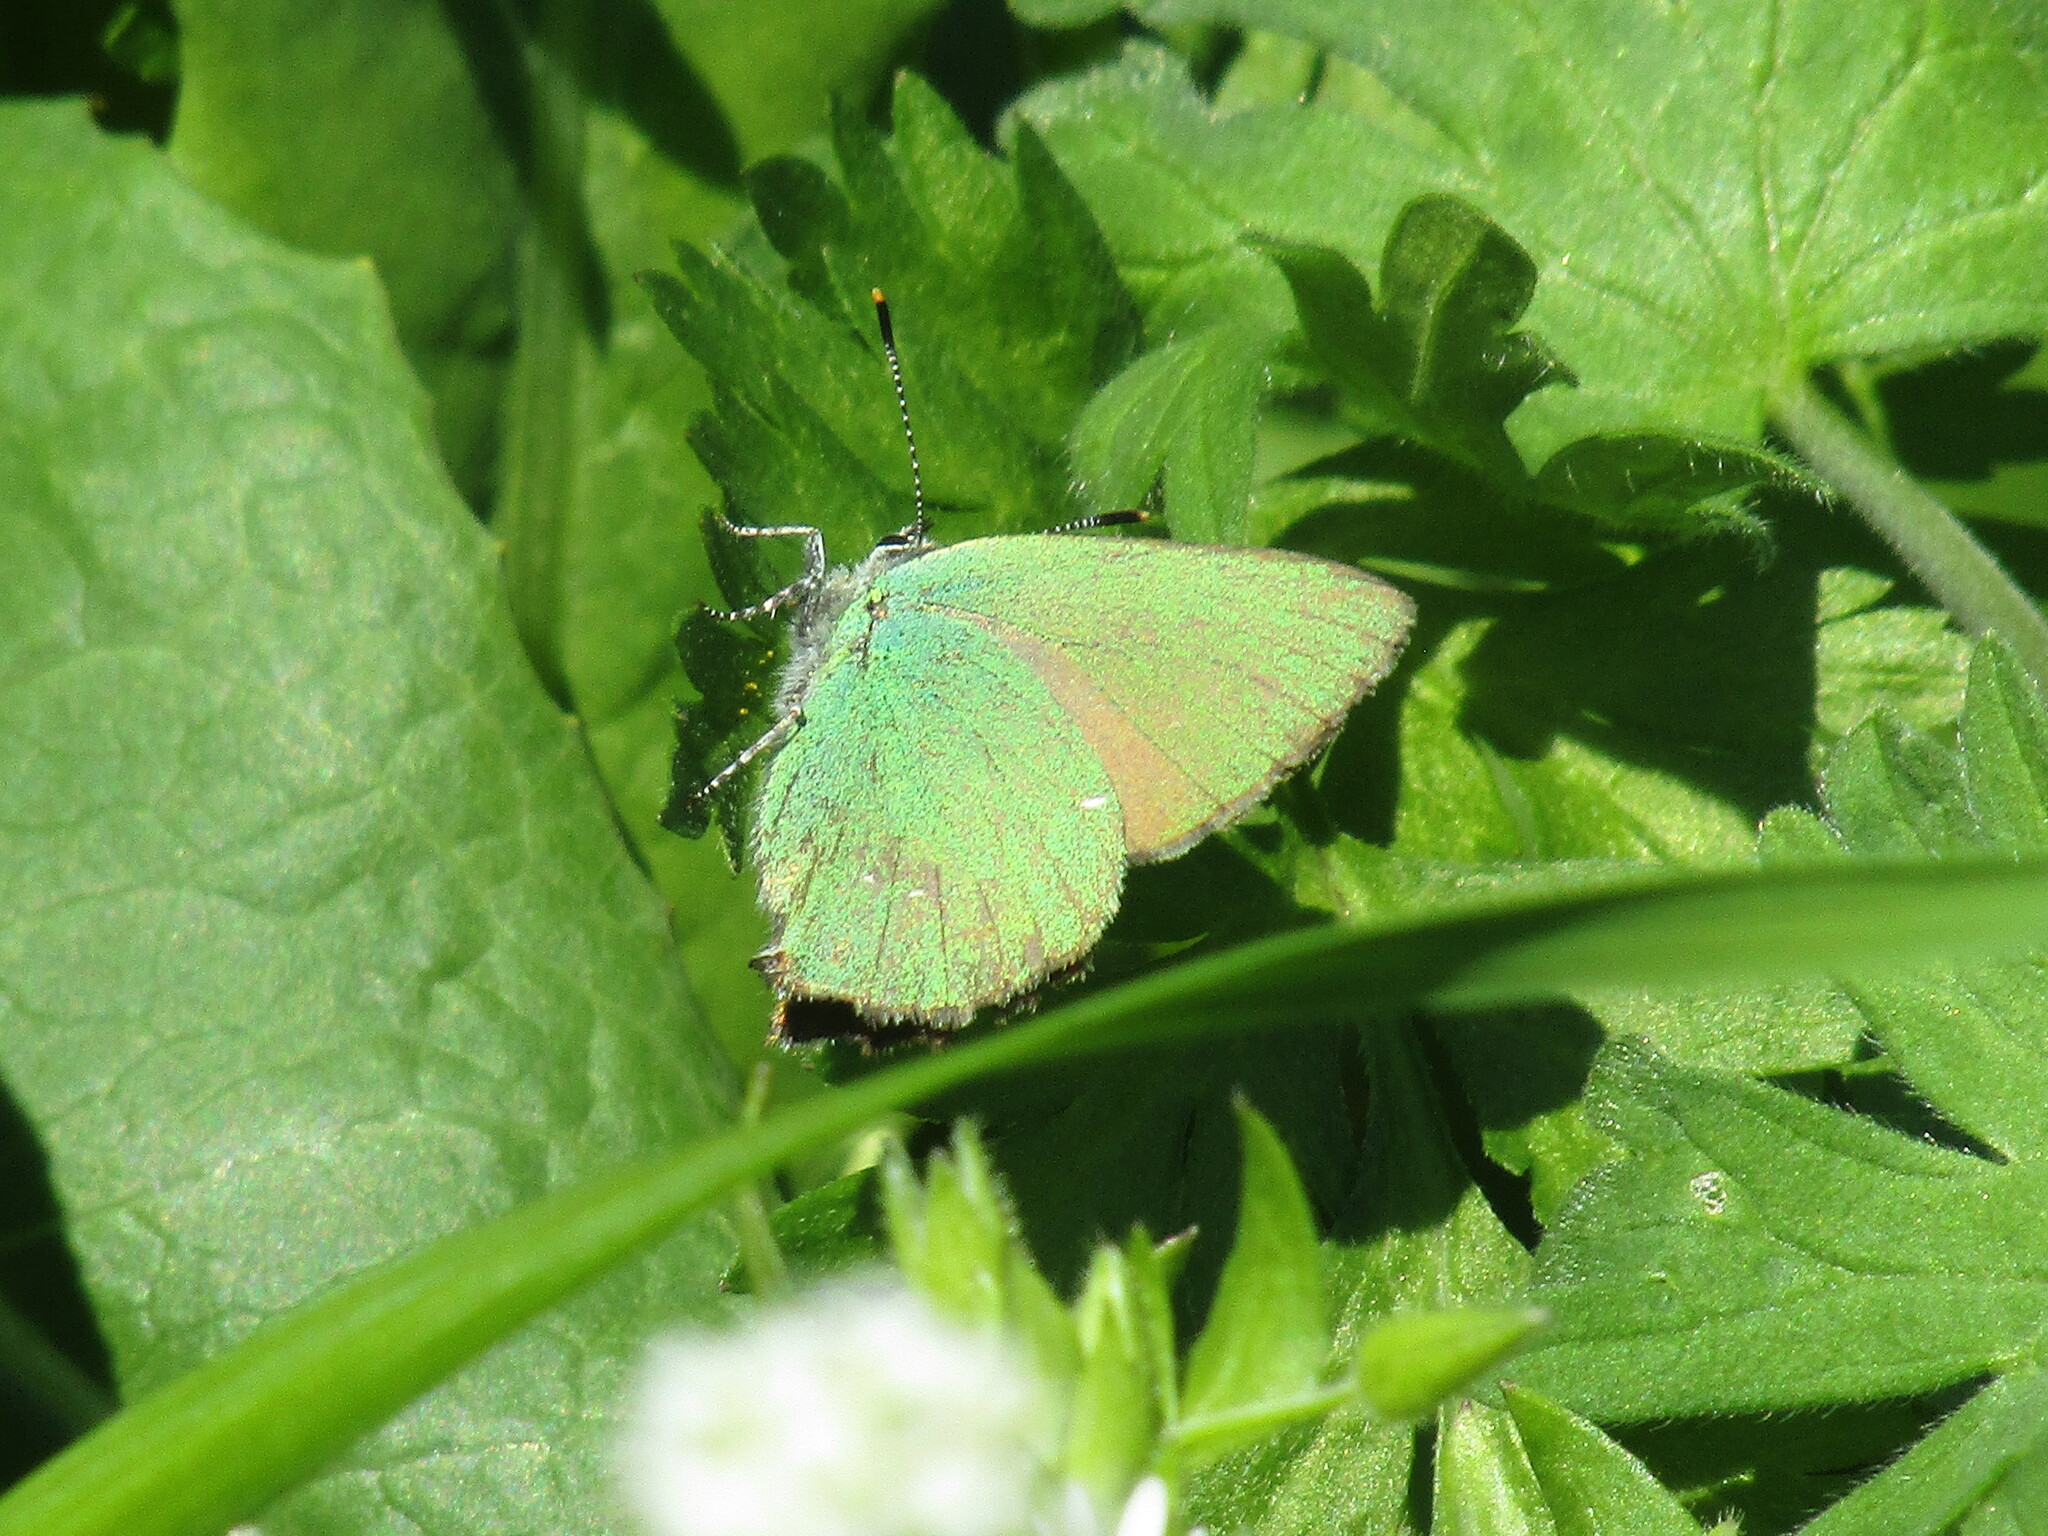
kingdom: Animalia
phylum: Arthropoda
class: Insecta
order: Lepidoptera
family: Lycaenidae
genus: Callophrys
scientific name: Callophrys rubi
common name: Green hairstreak
